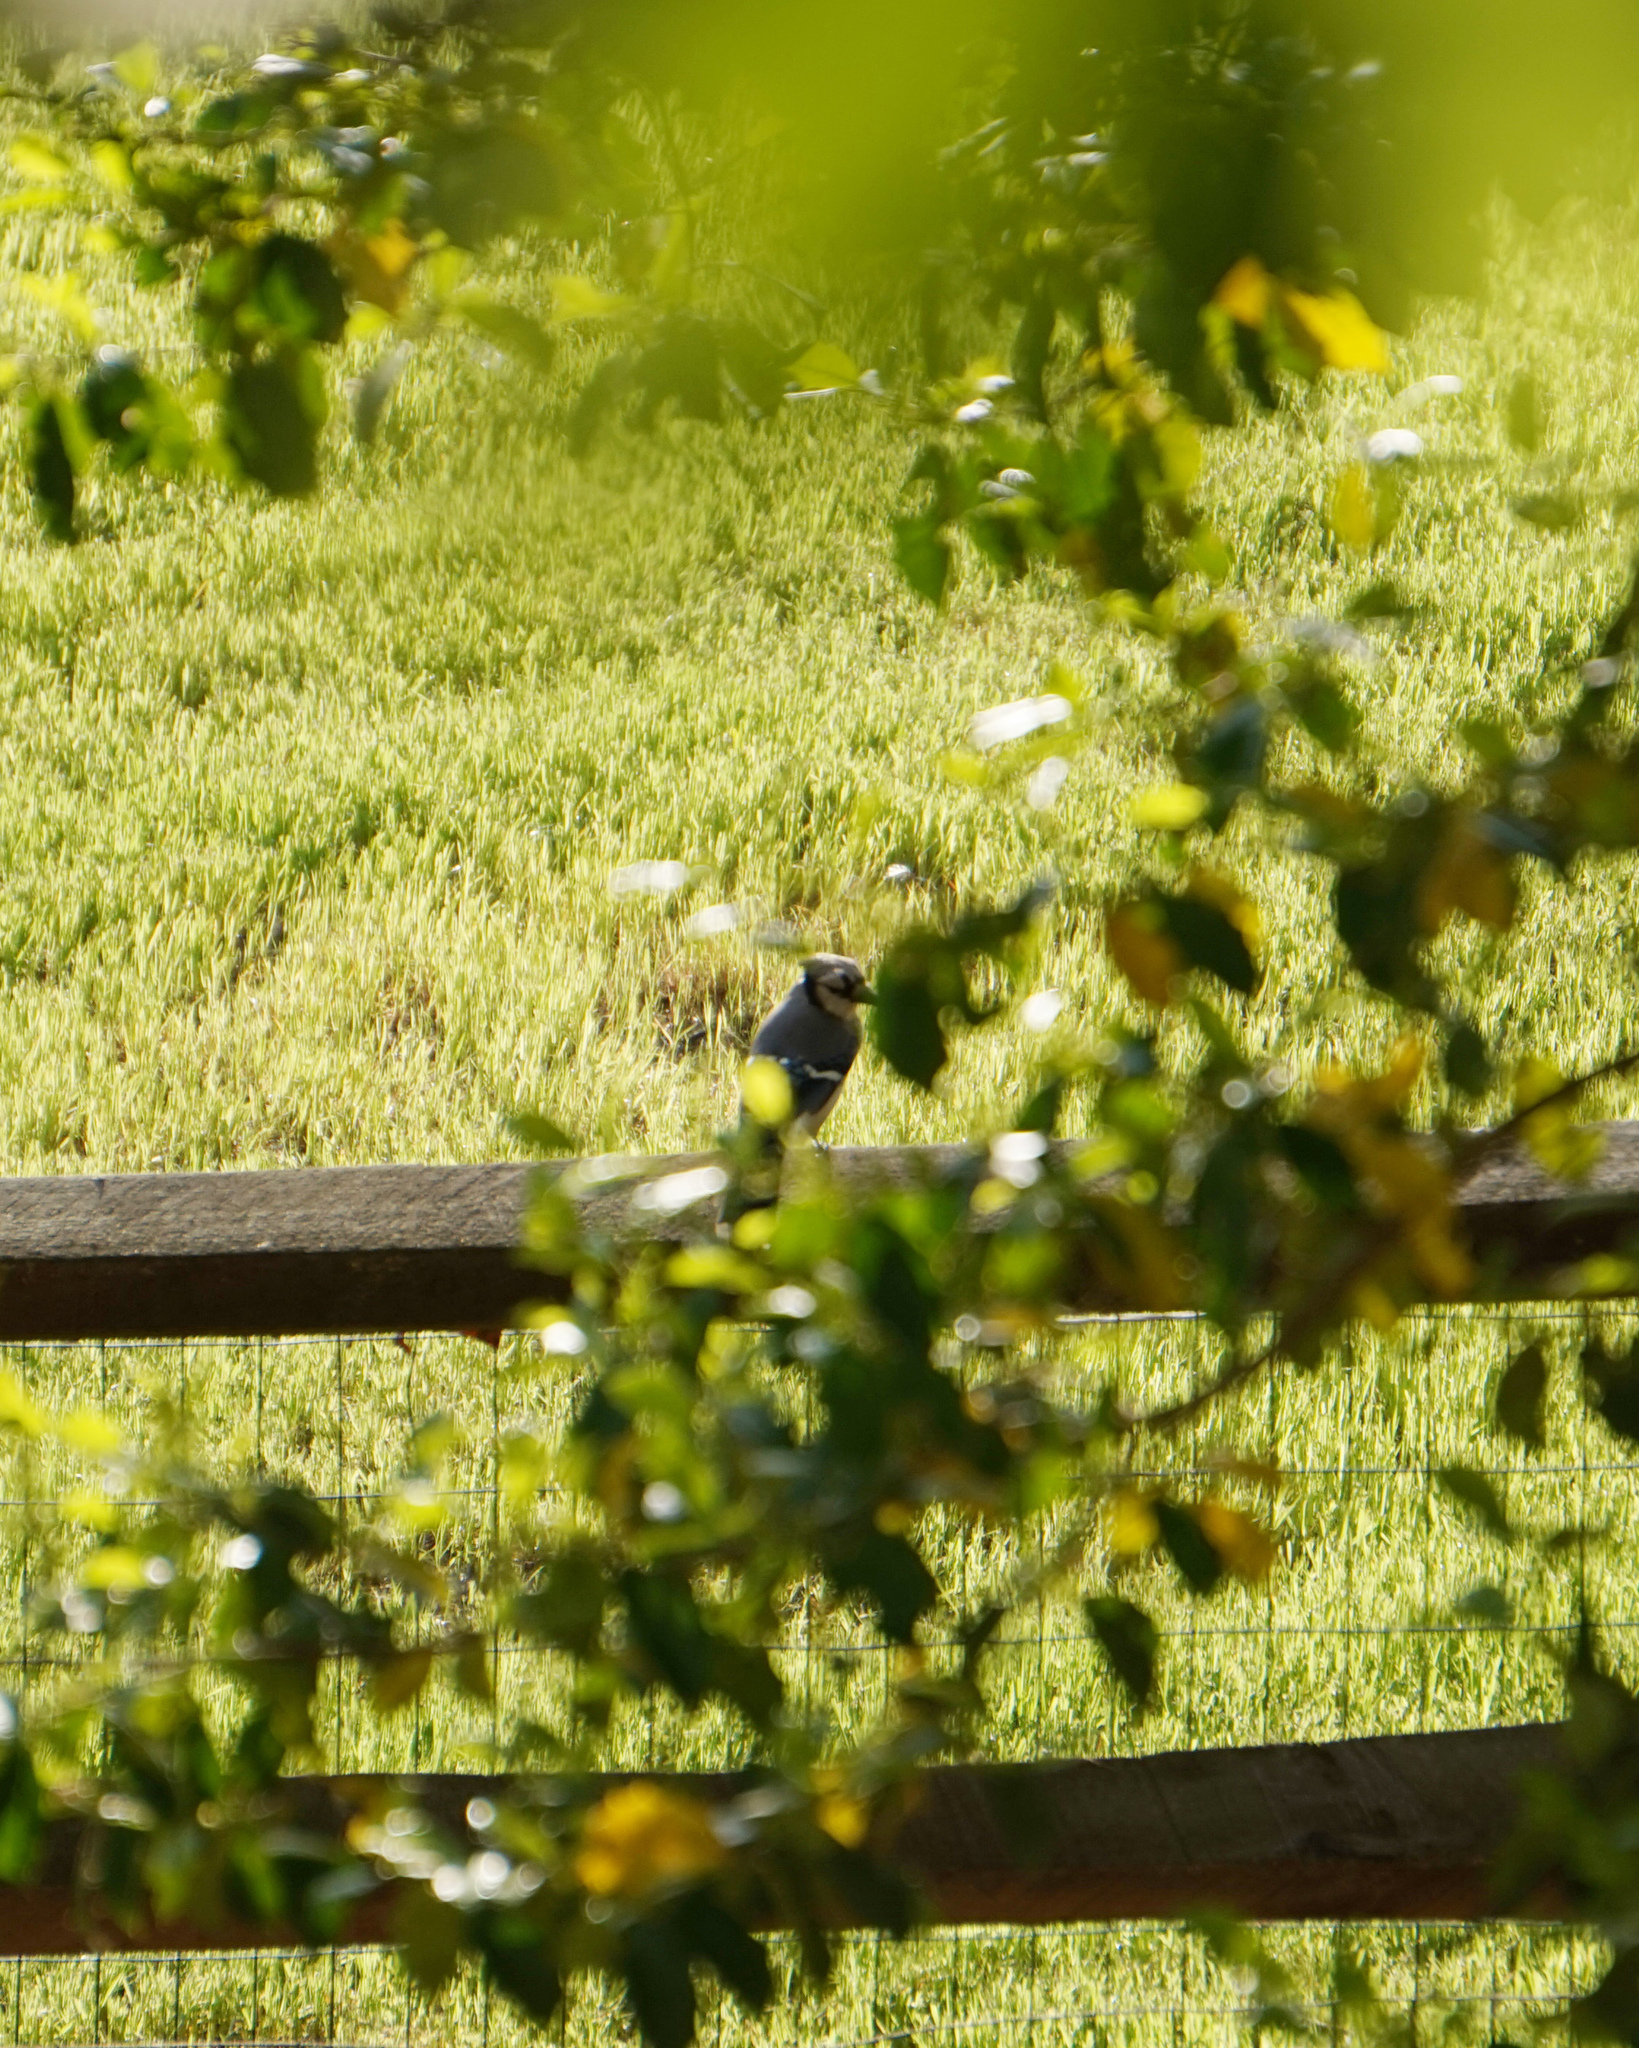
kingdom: Animalia
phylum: Chordata
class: Aves
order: Passeriformes
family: Corvidae
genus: Cyanocitta
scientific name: Cyanocitta cristata
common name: Blue jay
